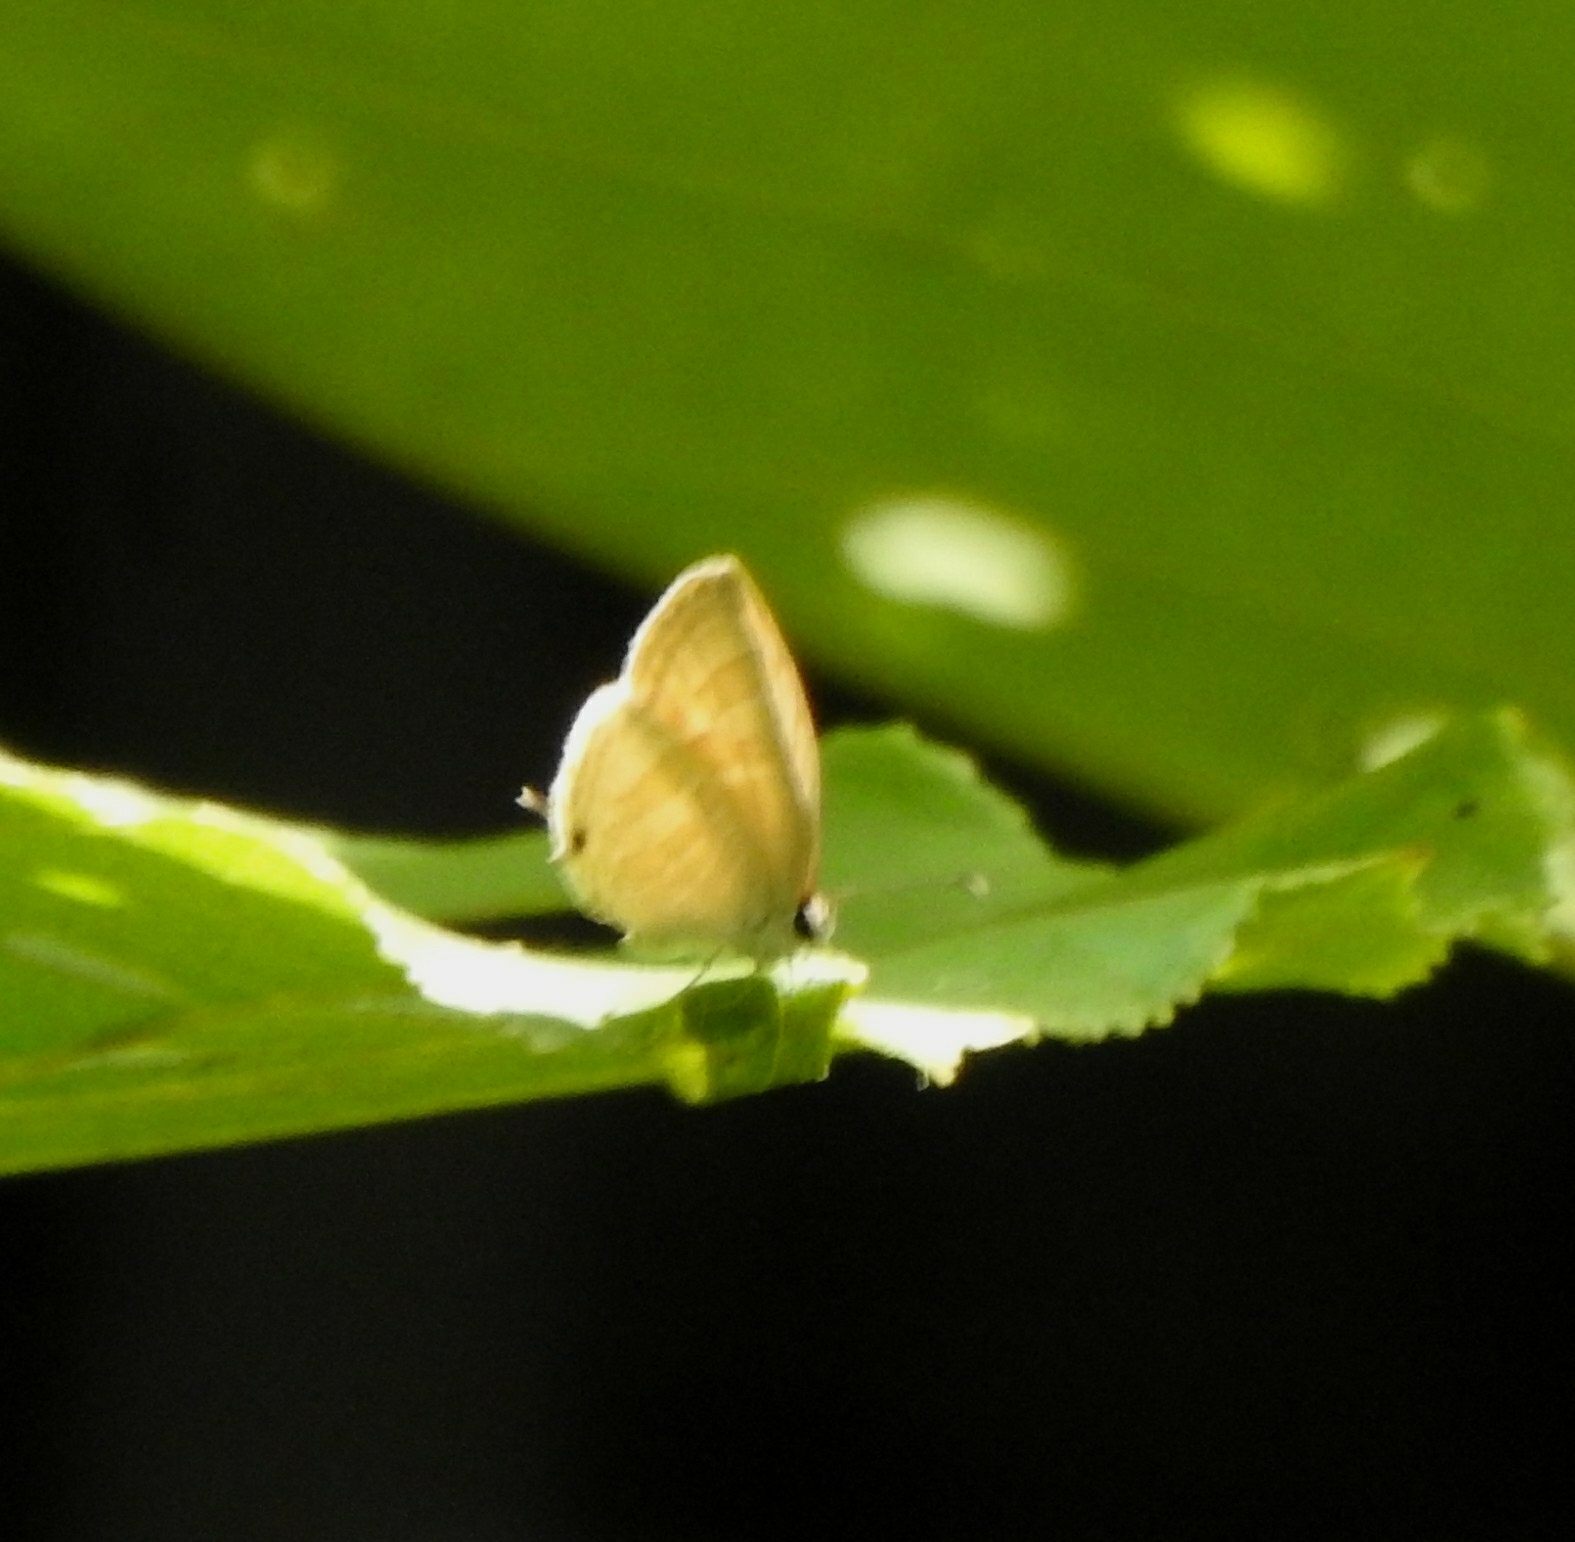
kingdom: Animalia
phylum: Arthropoda
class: Insecta
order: Lepidoptera
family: Lycaenidae
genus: Jamides
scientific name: Jamides celeno
